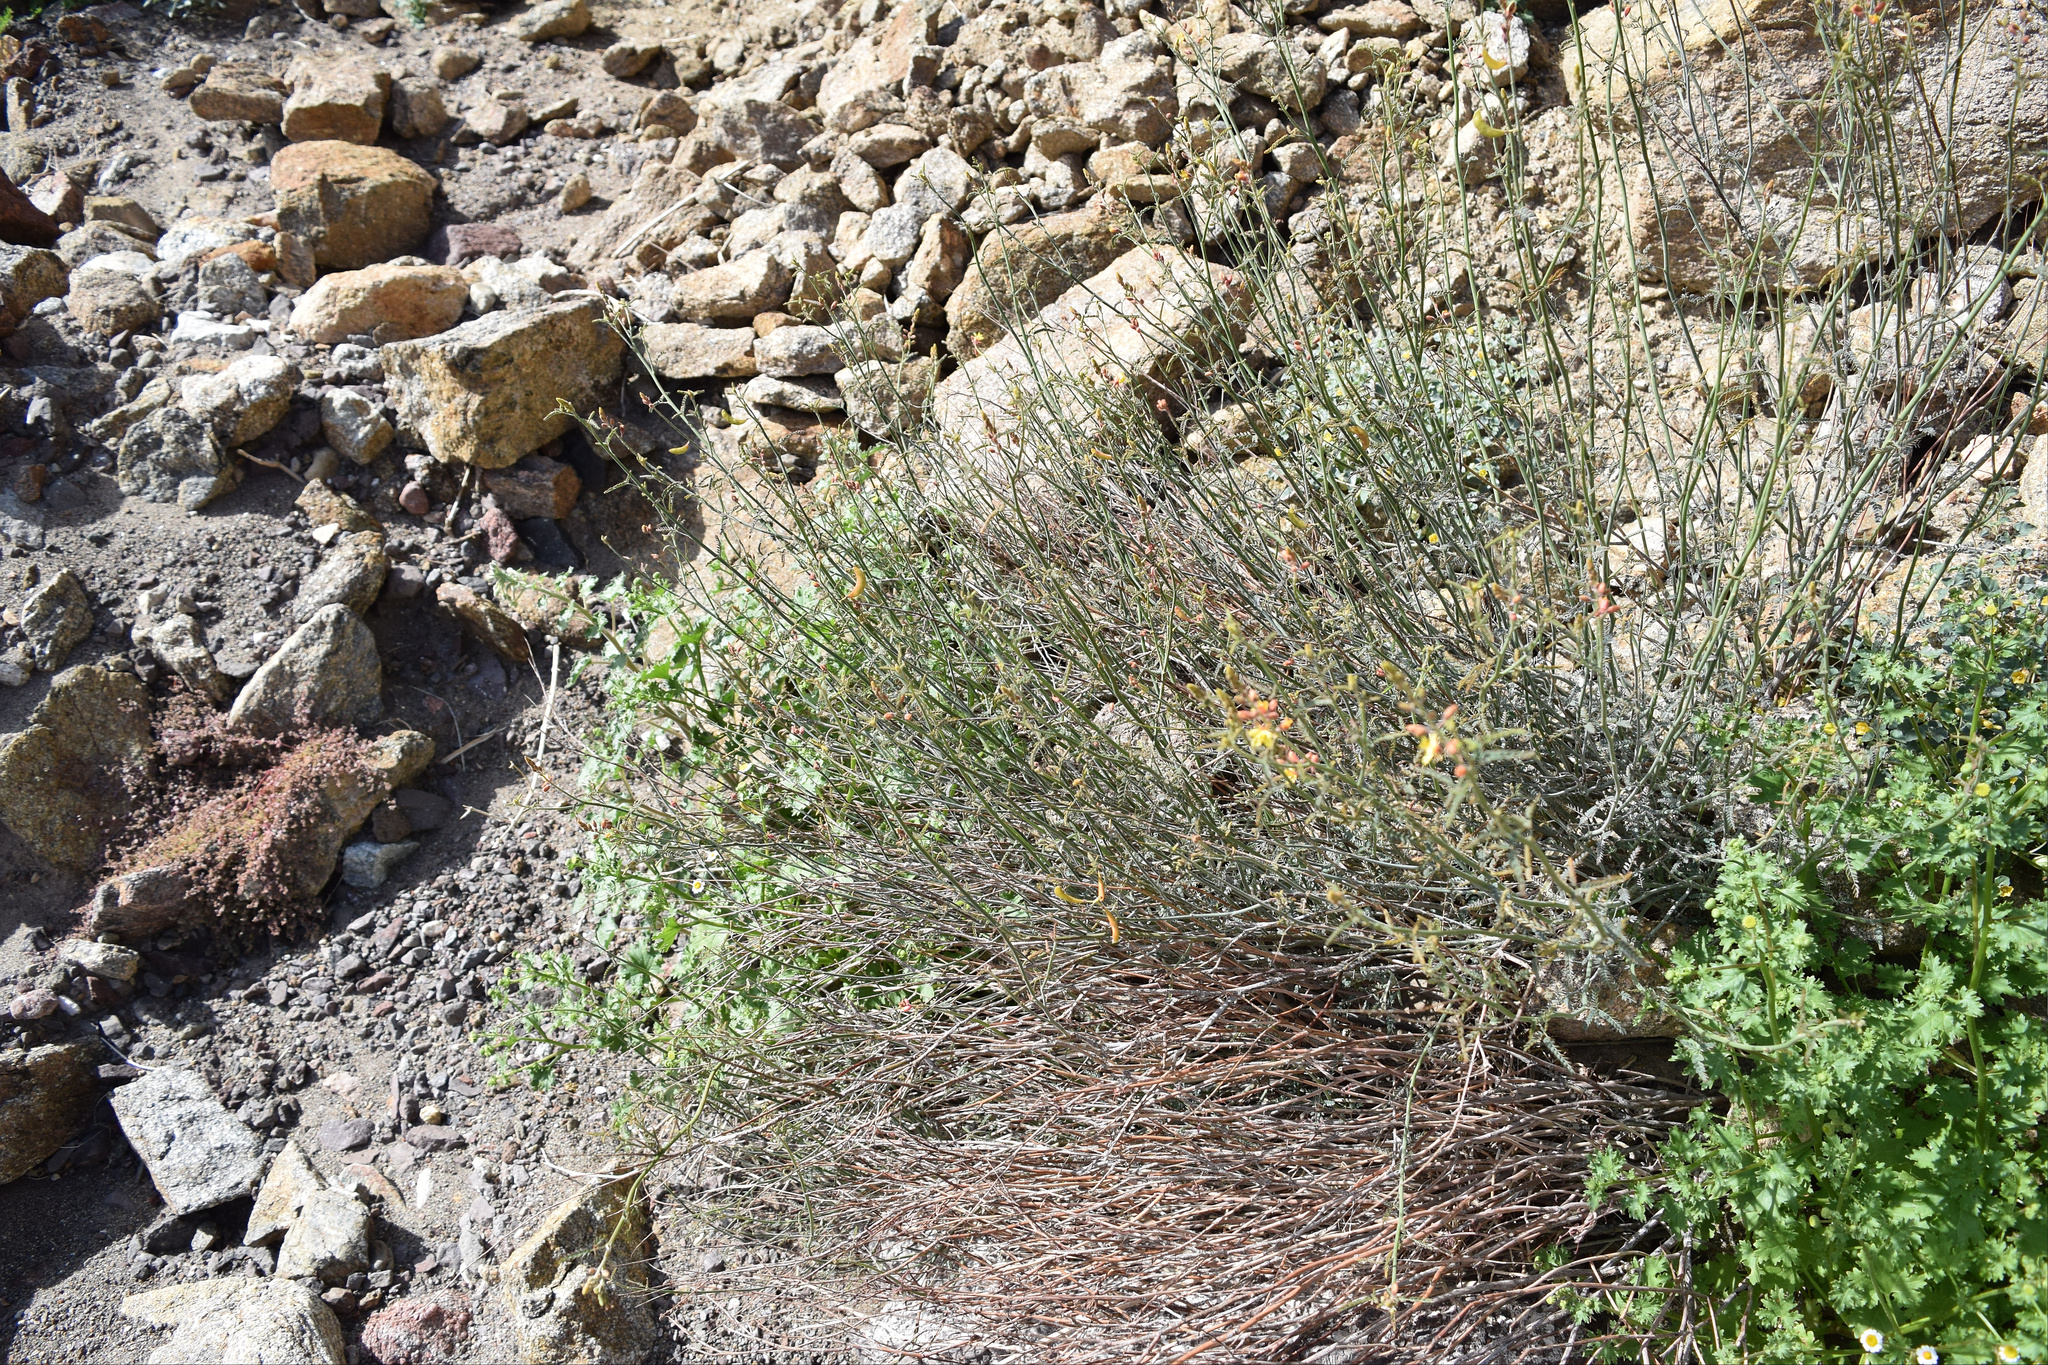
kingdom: Plantae
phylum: Tracheophyta
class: Magnoliopsida
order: Fabales
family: Fabaceae
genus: Hoffmannseggia
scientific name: Hoffmannseggia microphylla
